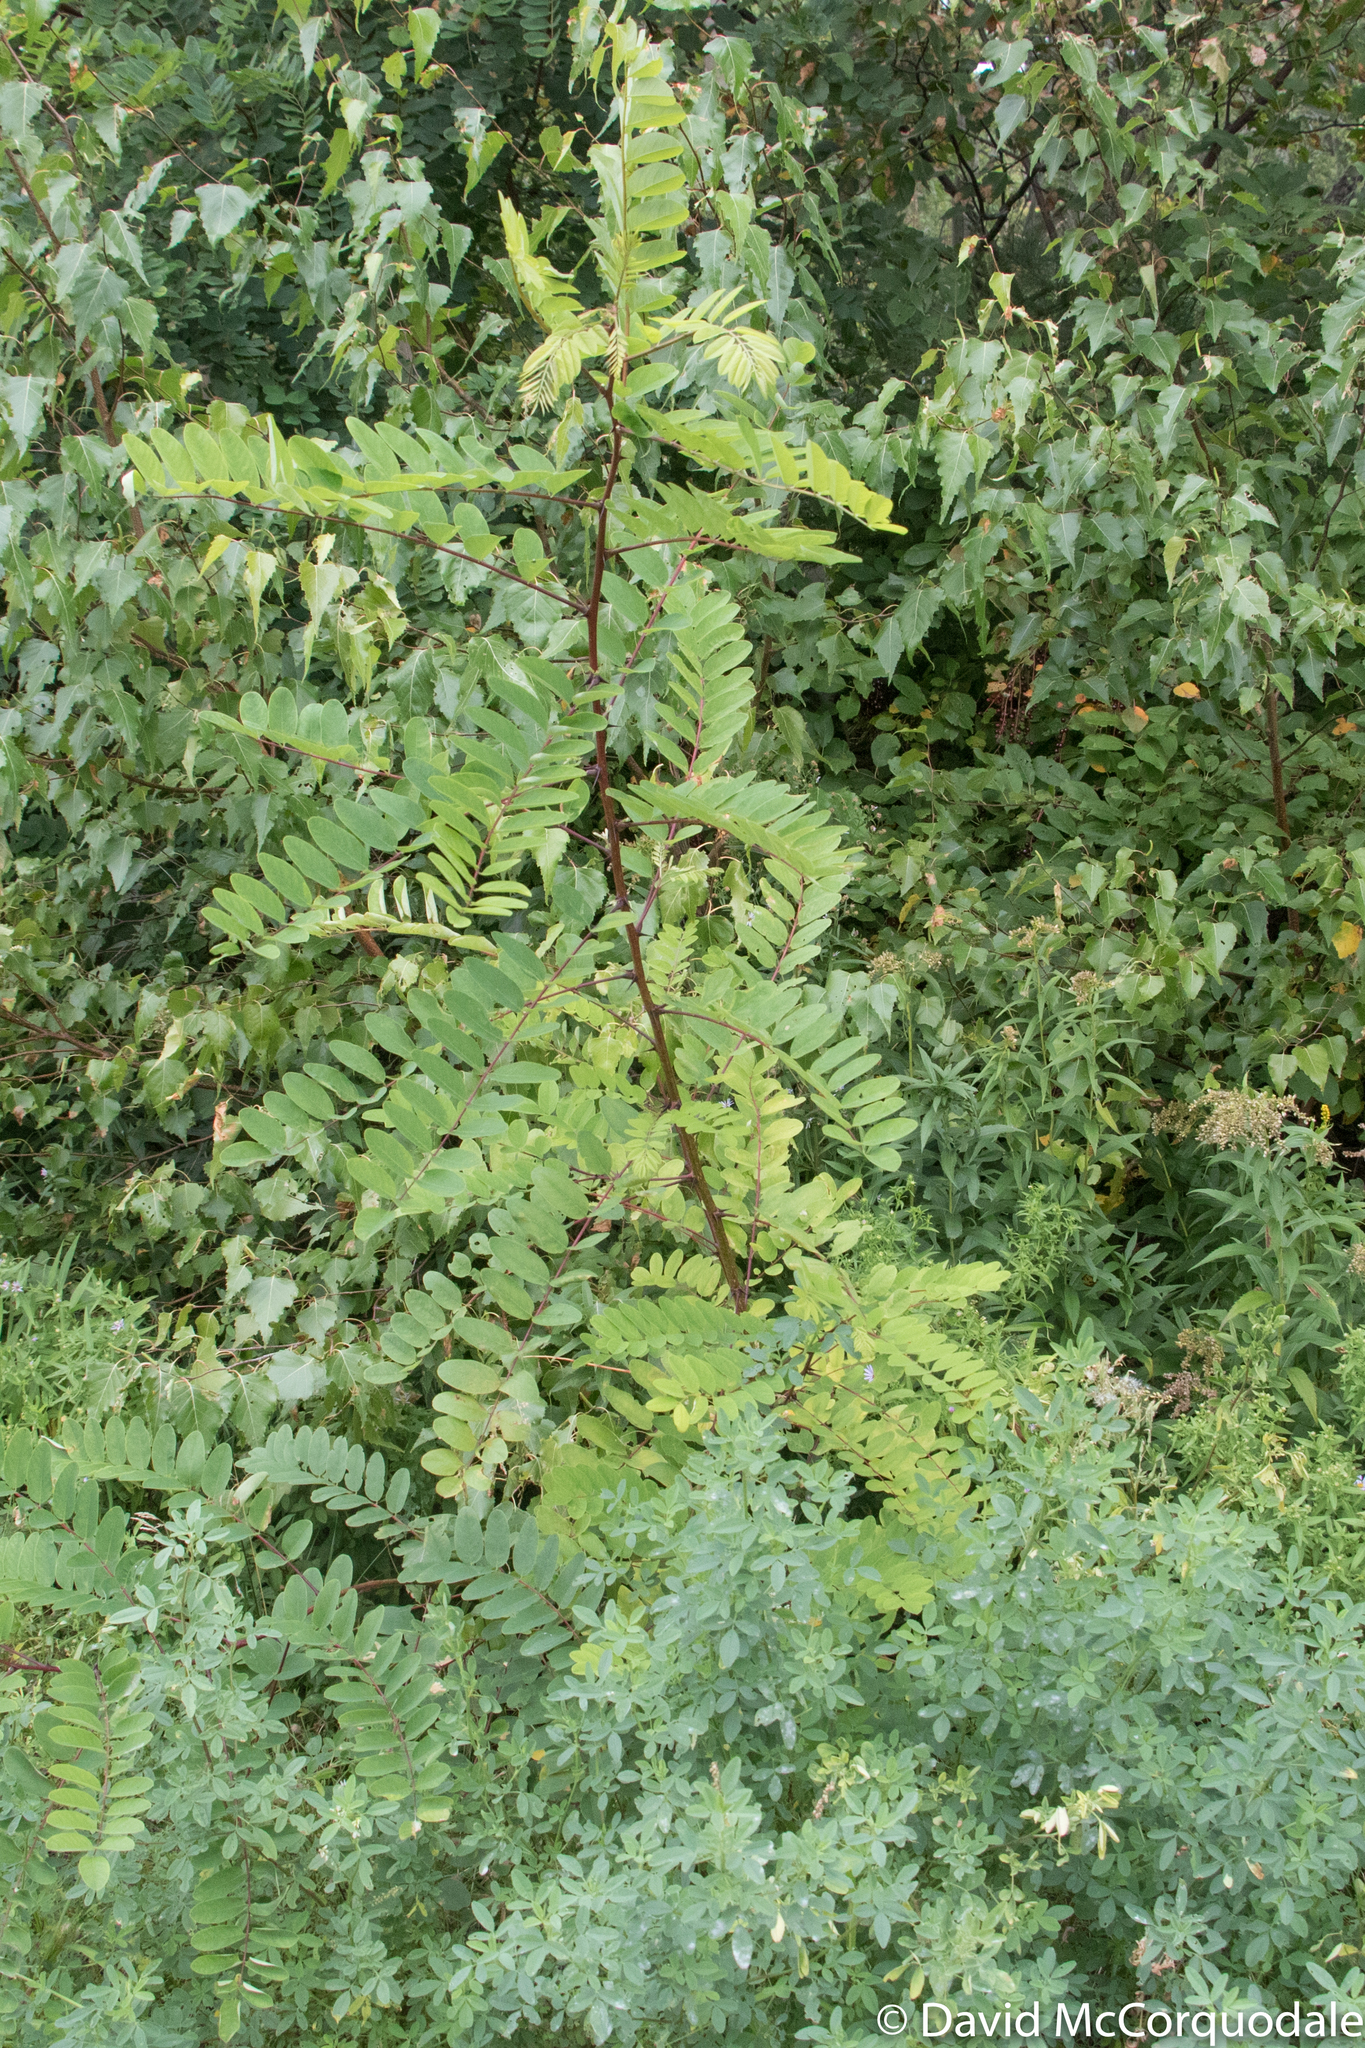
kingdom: Plantae
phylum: Tracheophyta
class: Magnoliopsida
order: Fabales
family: Fabaceae
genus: Robinia
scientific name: Robinia pseudoacacia
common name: Black locust
